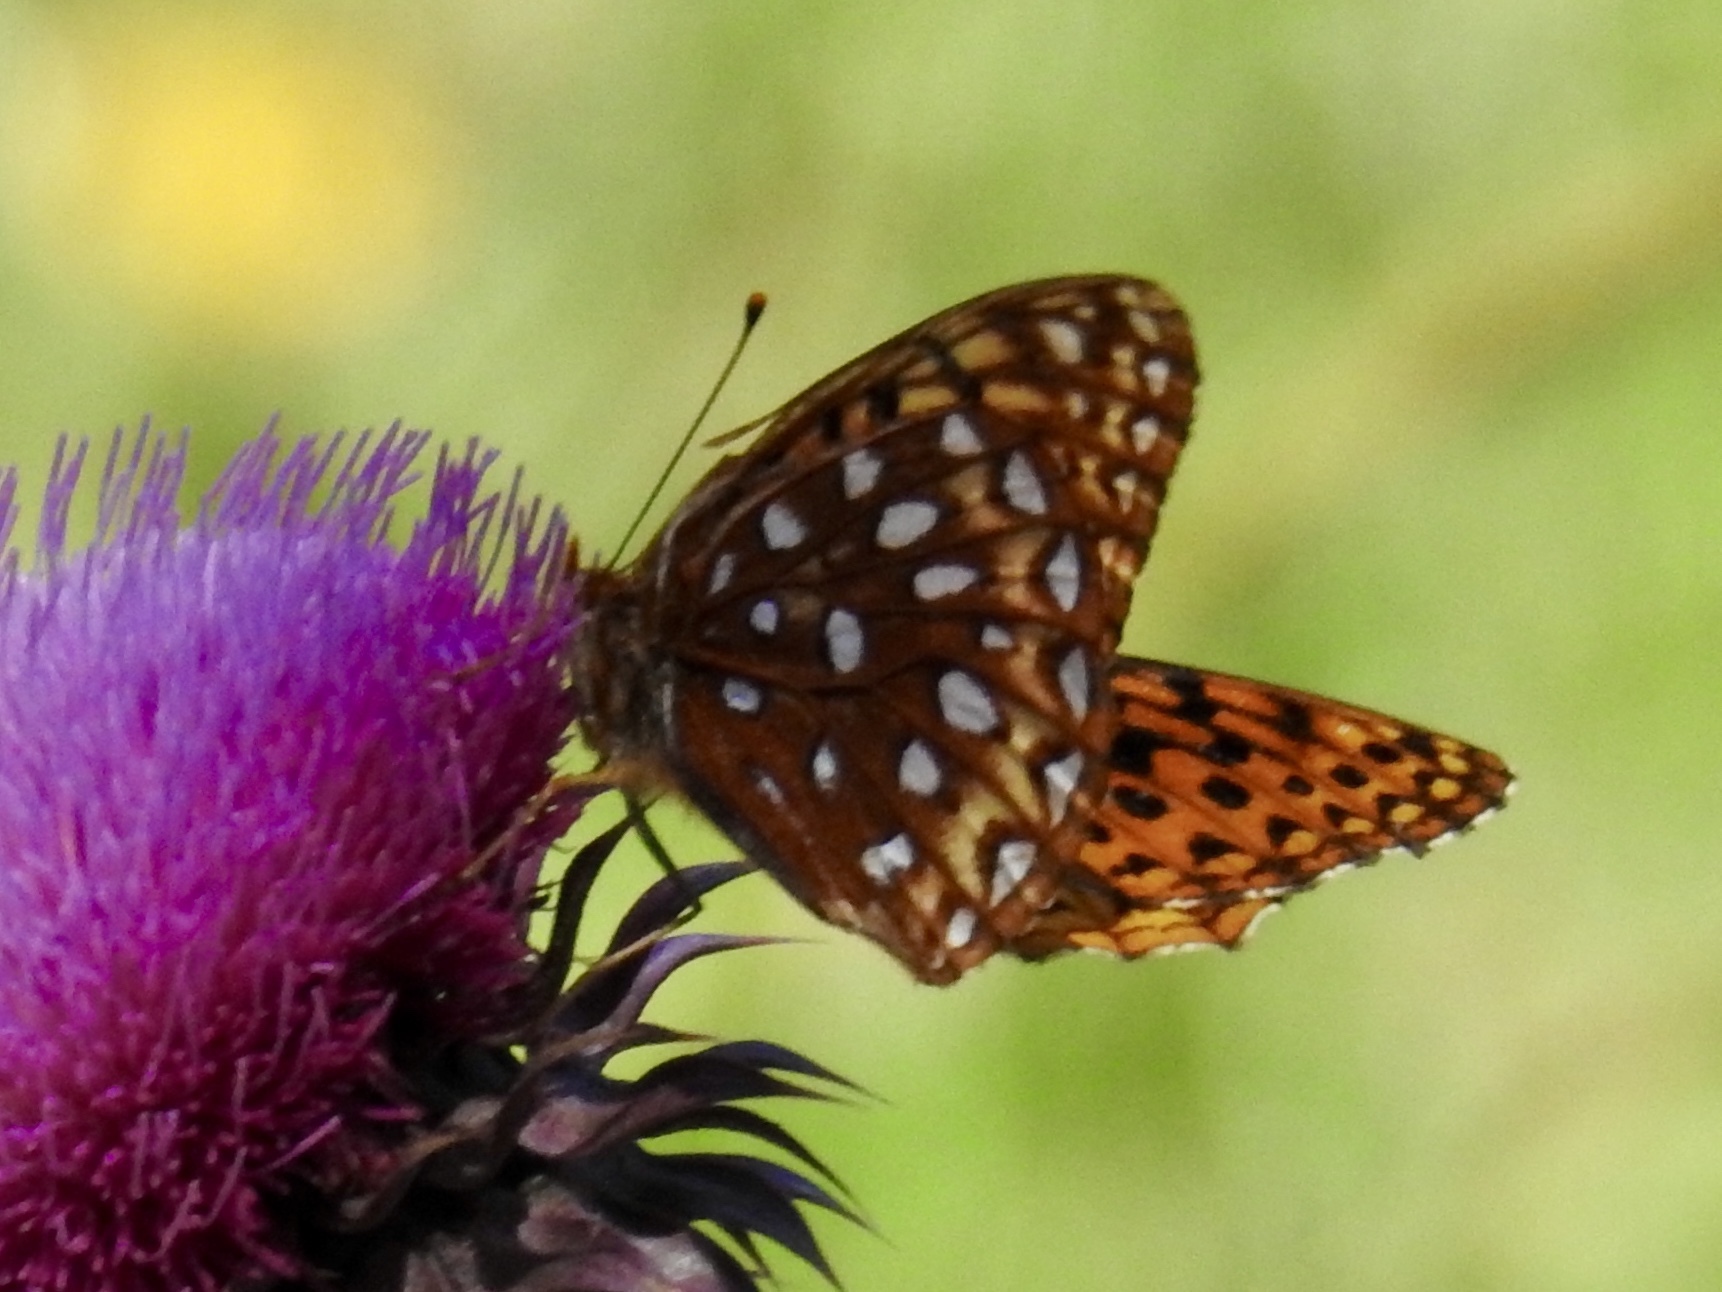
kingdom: Animalia
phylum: Arthropoda
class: Insecta
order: Lepidoptera
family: Nymphalidae
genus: Speyeria
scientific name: Speyeria atlantis
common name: Atlantis fritillary
